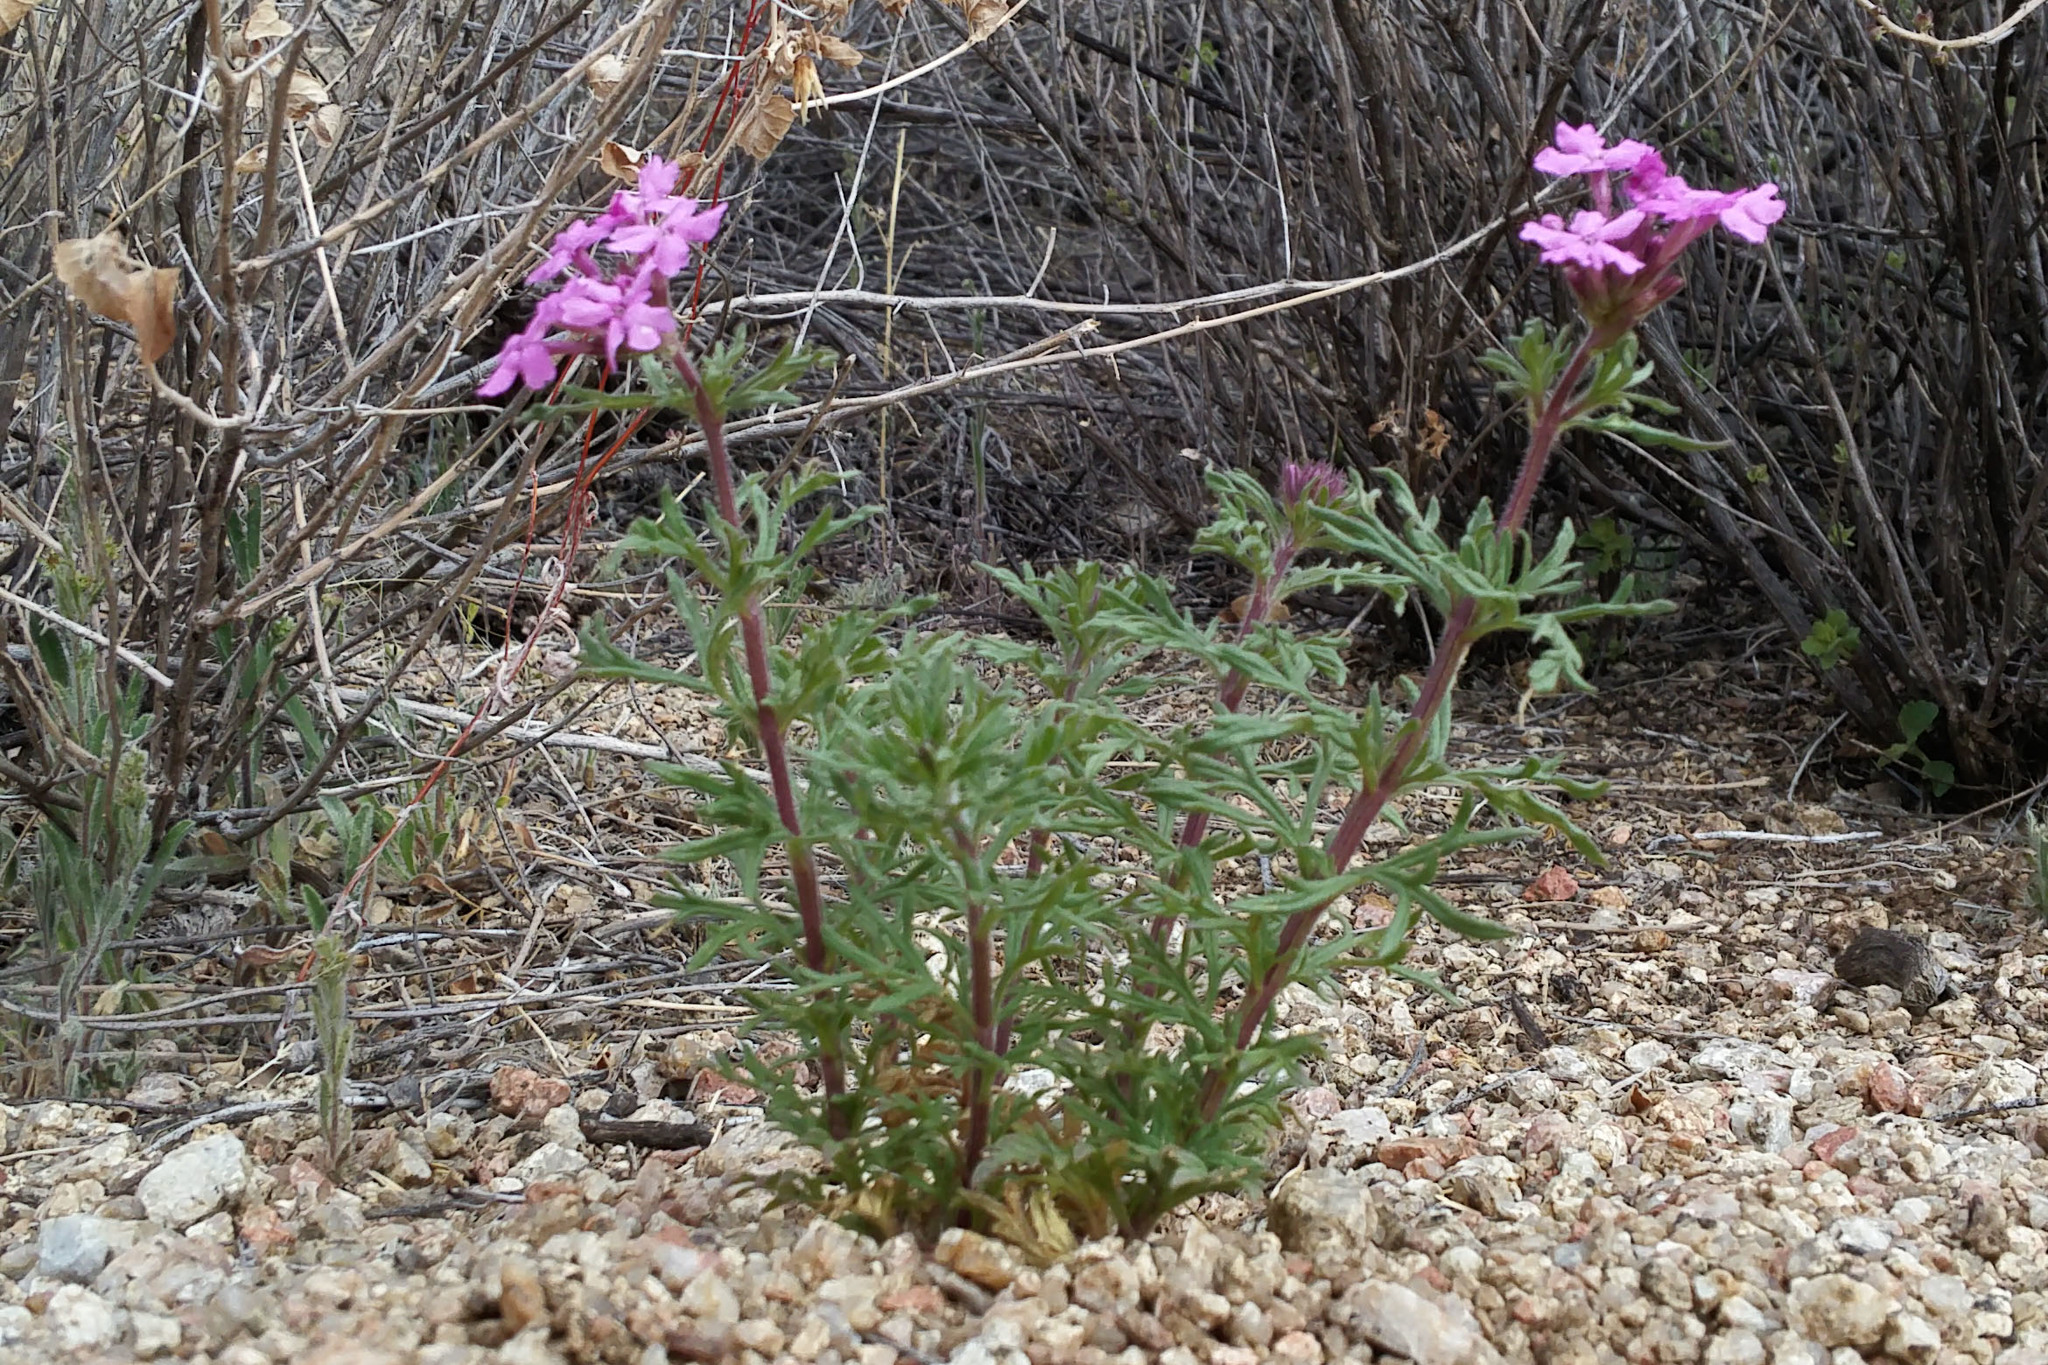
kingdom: Plantae
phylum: Tracheophyta
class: Magnoliopsida
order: Lamiales
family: Verbenaceae
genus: Verbena
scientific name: Verbena bipinnatifida
